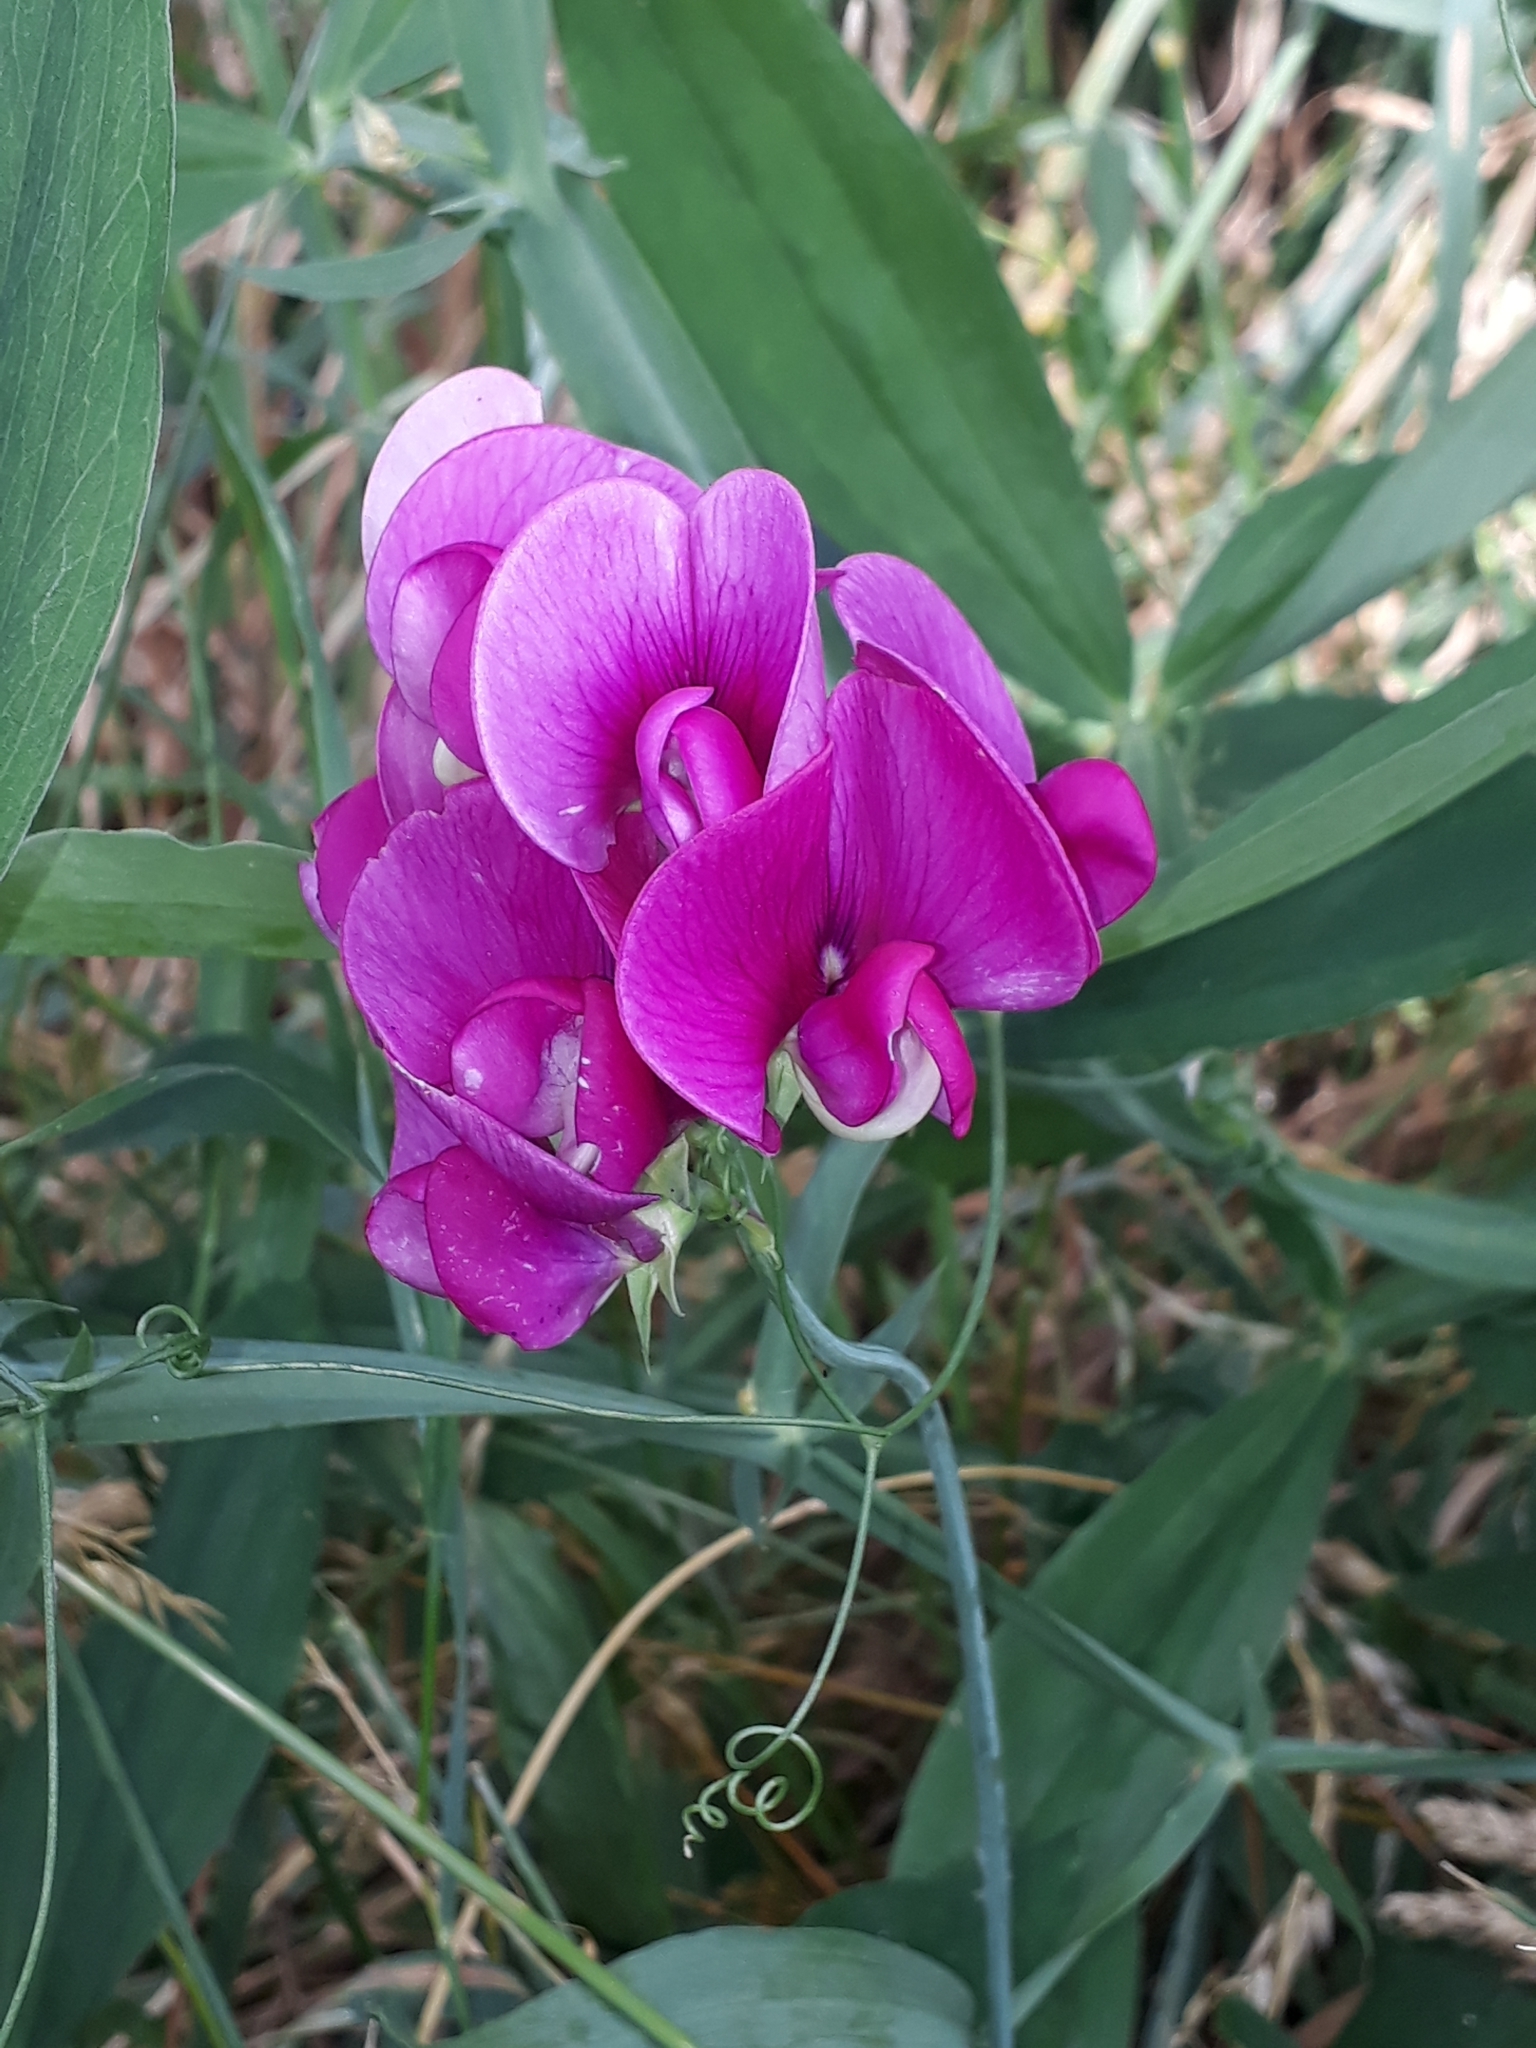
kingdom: Plantae
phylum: Tracheophyta
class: Magnoliopsida
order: Fabales
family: Fabaceae
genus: Lathyrus
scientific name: Lathyrus latifolius
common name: Perennial pea
